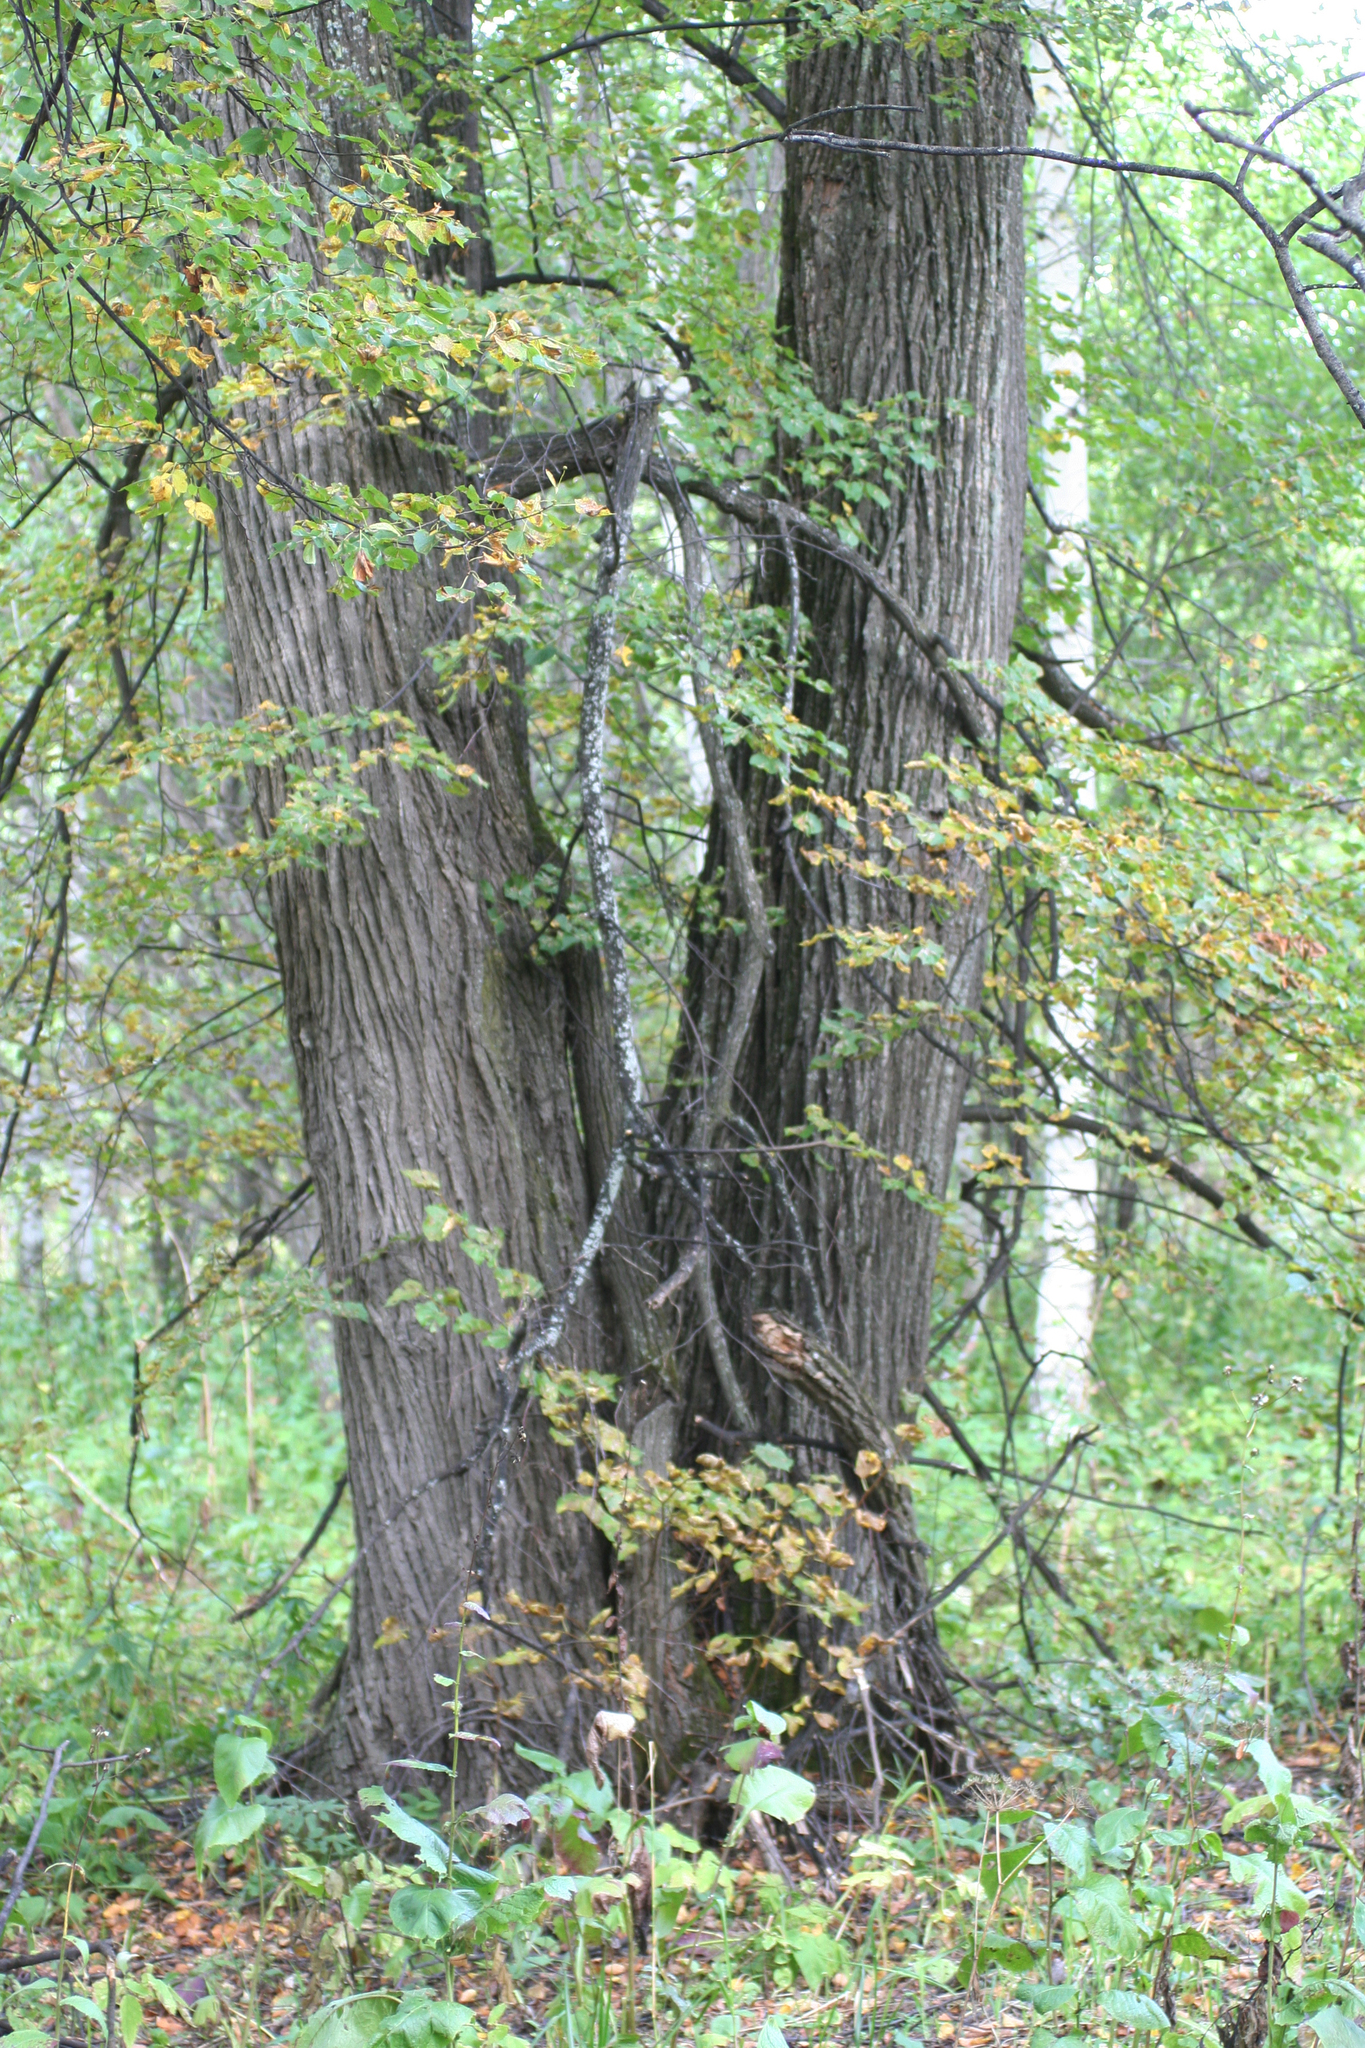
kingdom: Plantae
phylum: Tracheophyta
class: Magnoliopsida
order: Malvales
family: Malvaceae
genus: Tilia
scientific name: Tilia cordata
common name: Small-leaved lime
